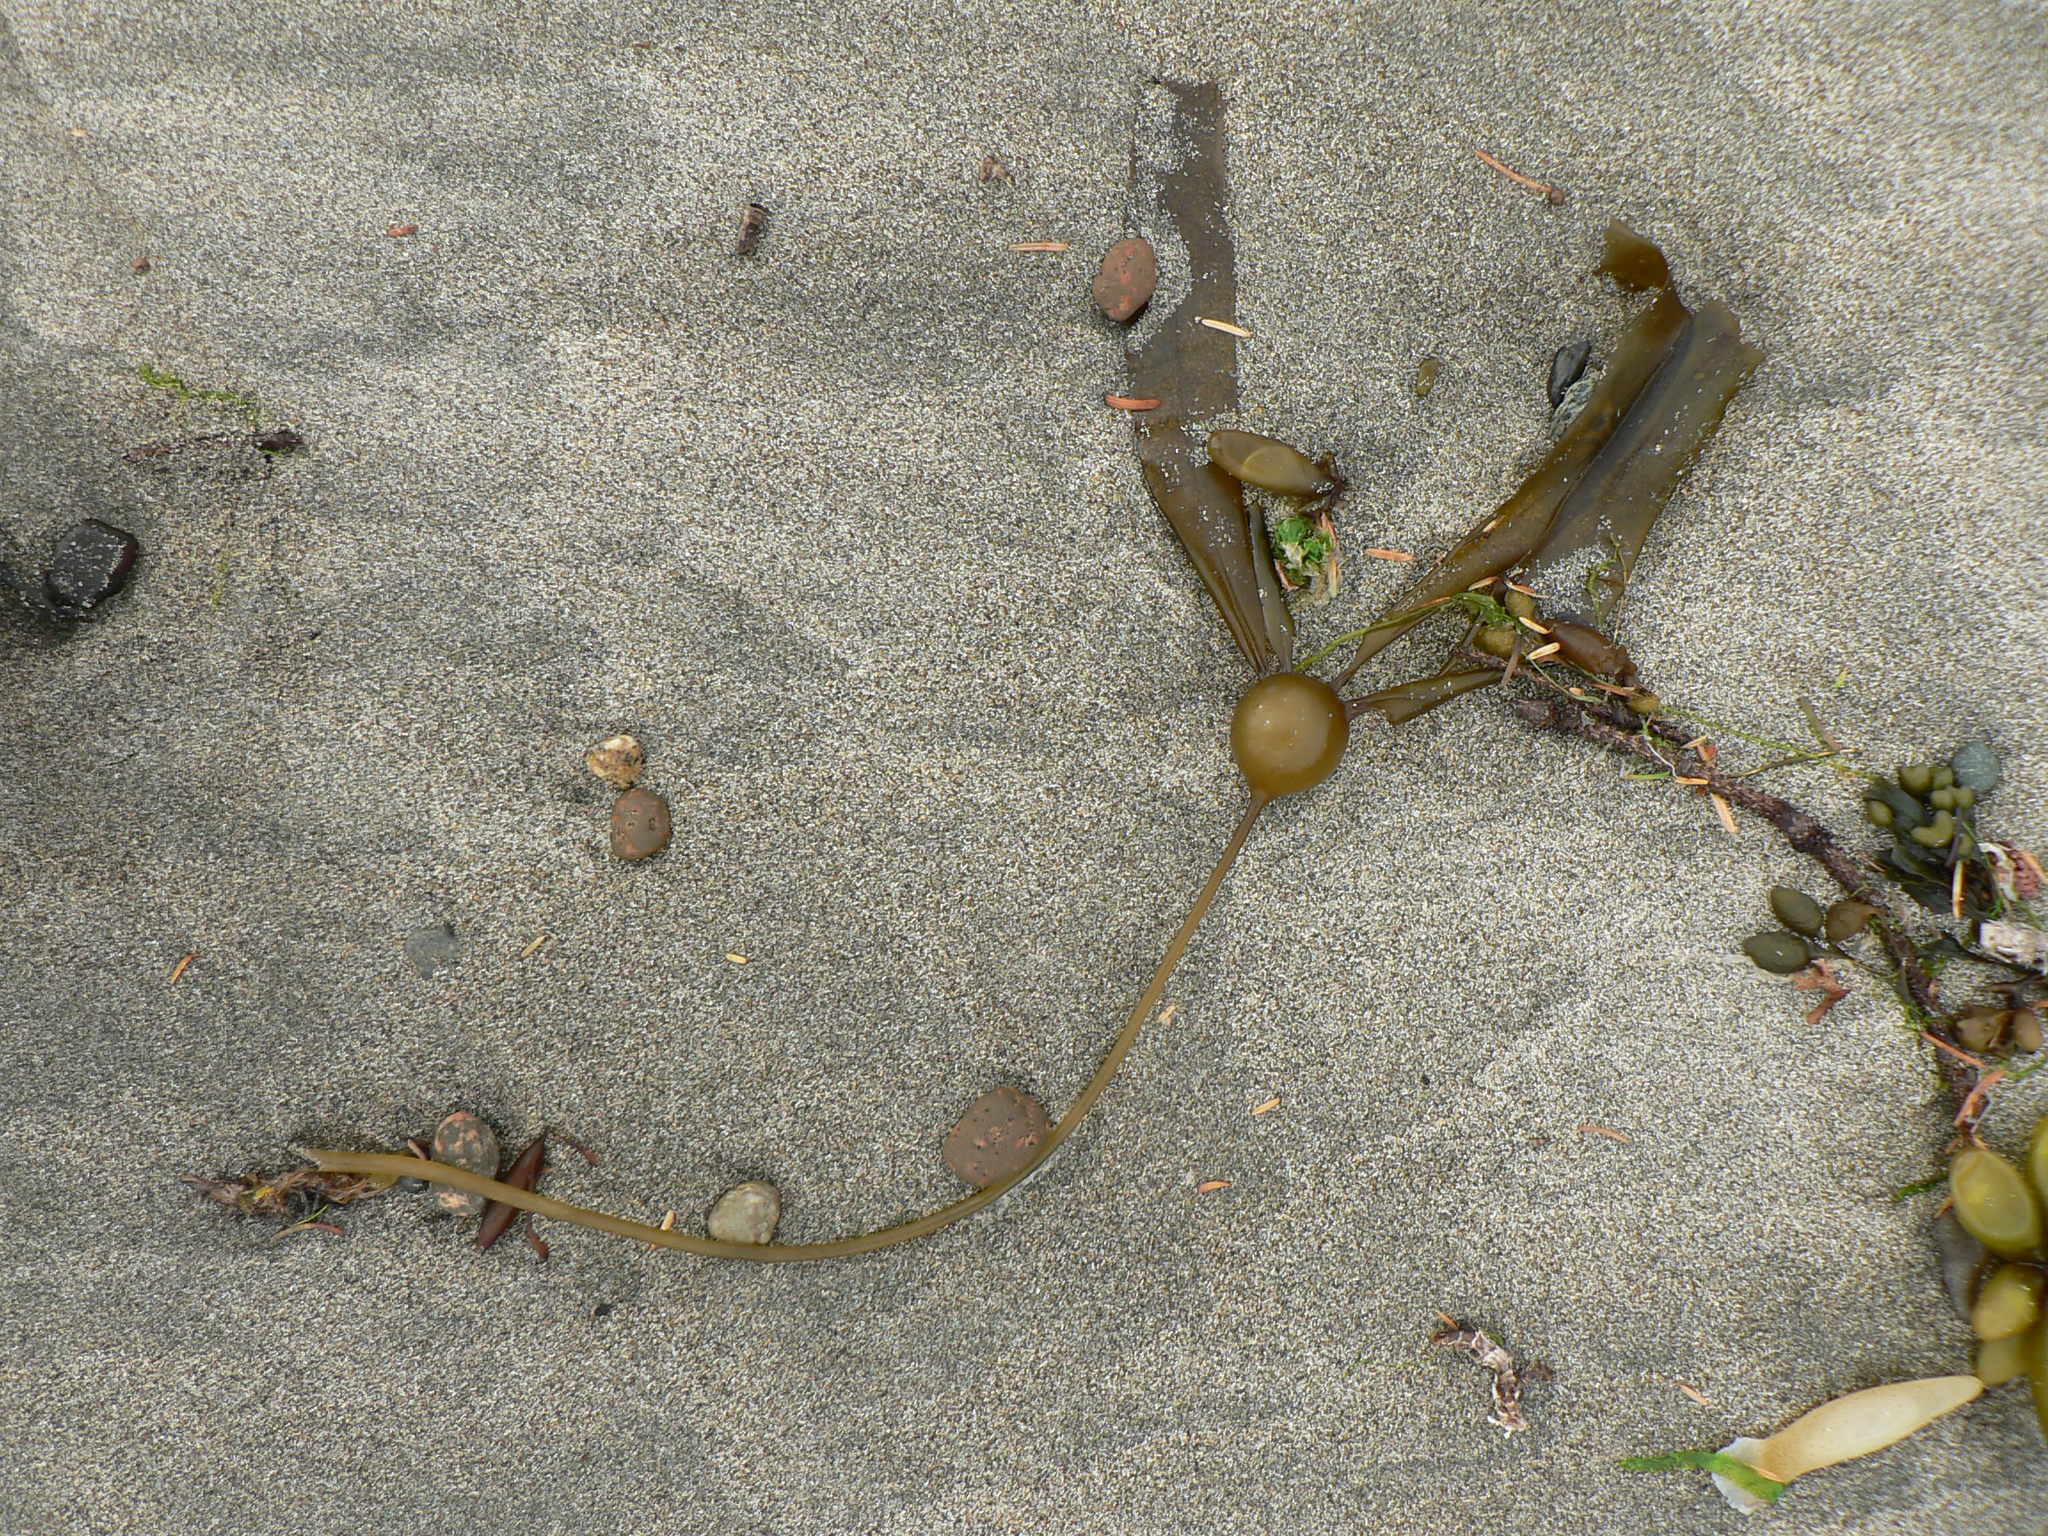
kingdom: Chromista
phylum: Ochrophyta
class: Phaeophyceae
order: Laminariales
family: Laminariaceae
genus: Nereocystis
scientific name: Nereocystis luetkeana
